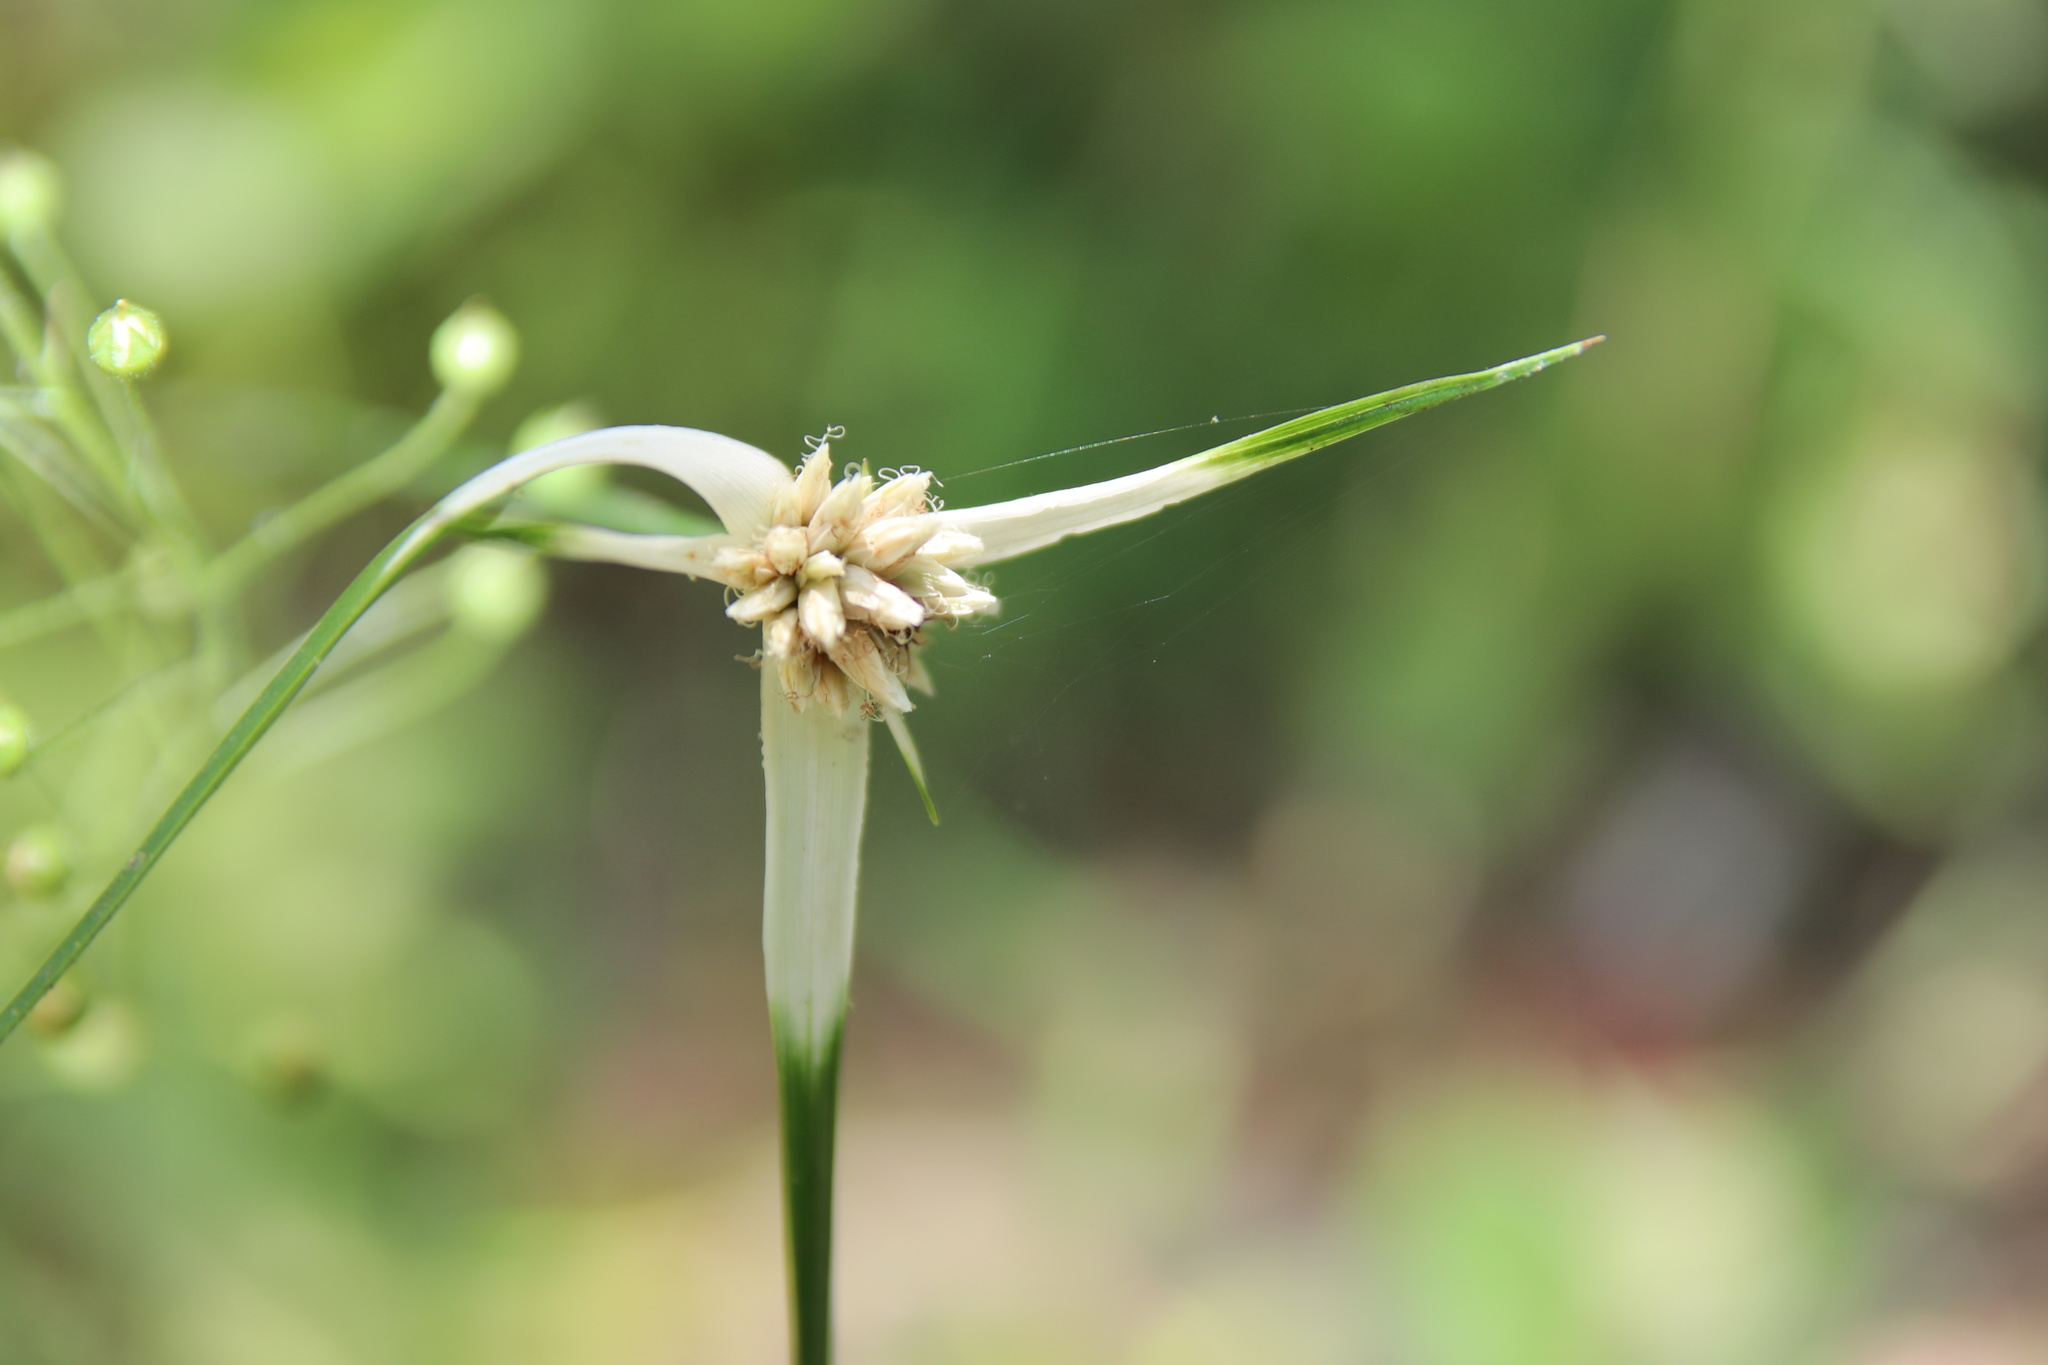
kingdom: Plantae
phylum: Tracheophyta
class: Liliopsida
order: Poales
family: Cyperaceae
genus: Rhynchospora
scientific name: Rhynchospora colorata
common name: Star sedge
